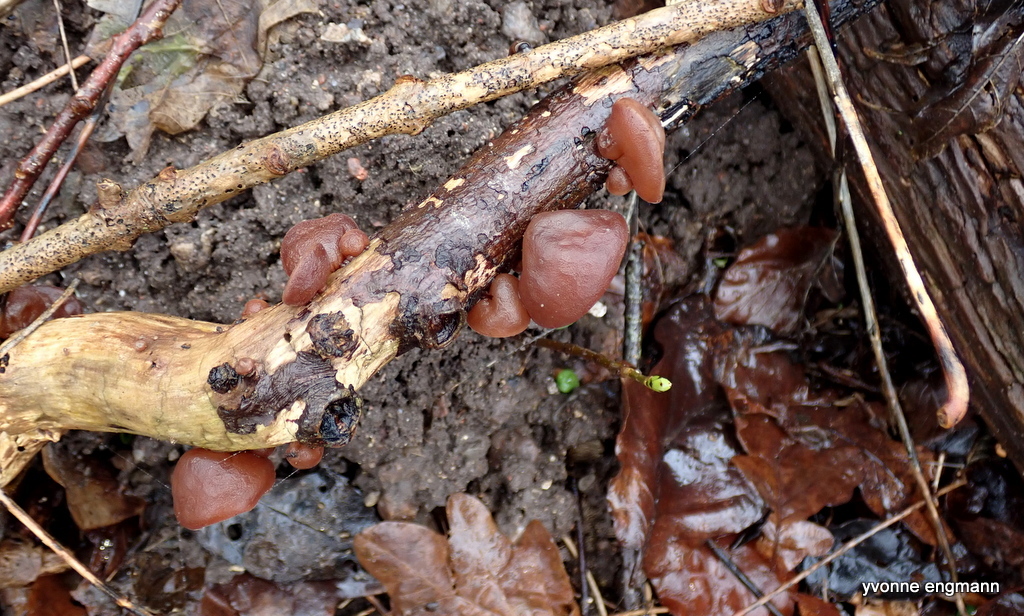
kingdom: Fungi
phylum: Basidiomycota
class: Agaricomycetes
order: Auriculariales
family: Auriculariaceae
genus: Auricularia
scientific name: Auricularia auricula-judae
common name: Jelly ear
